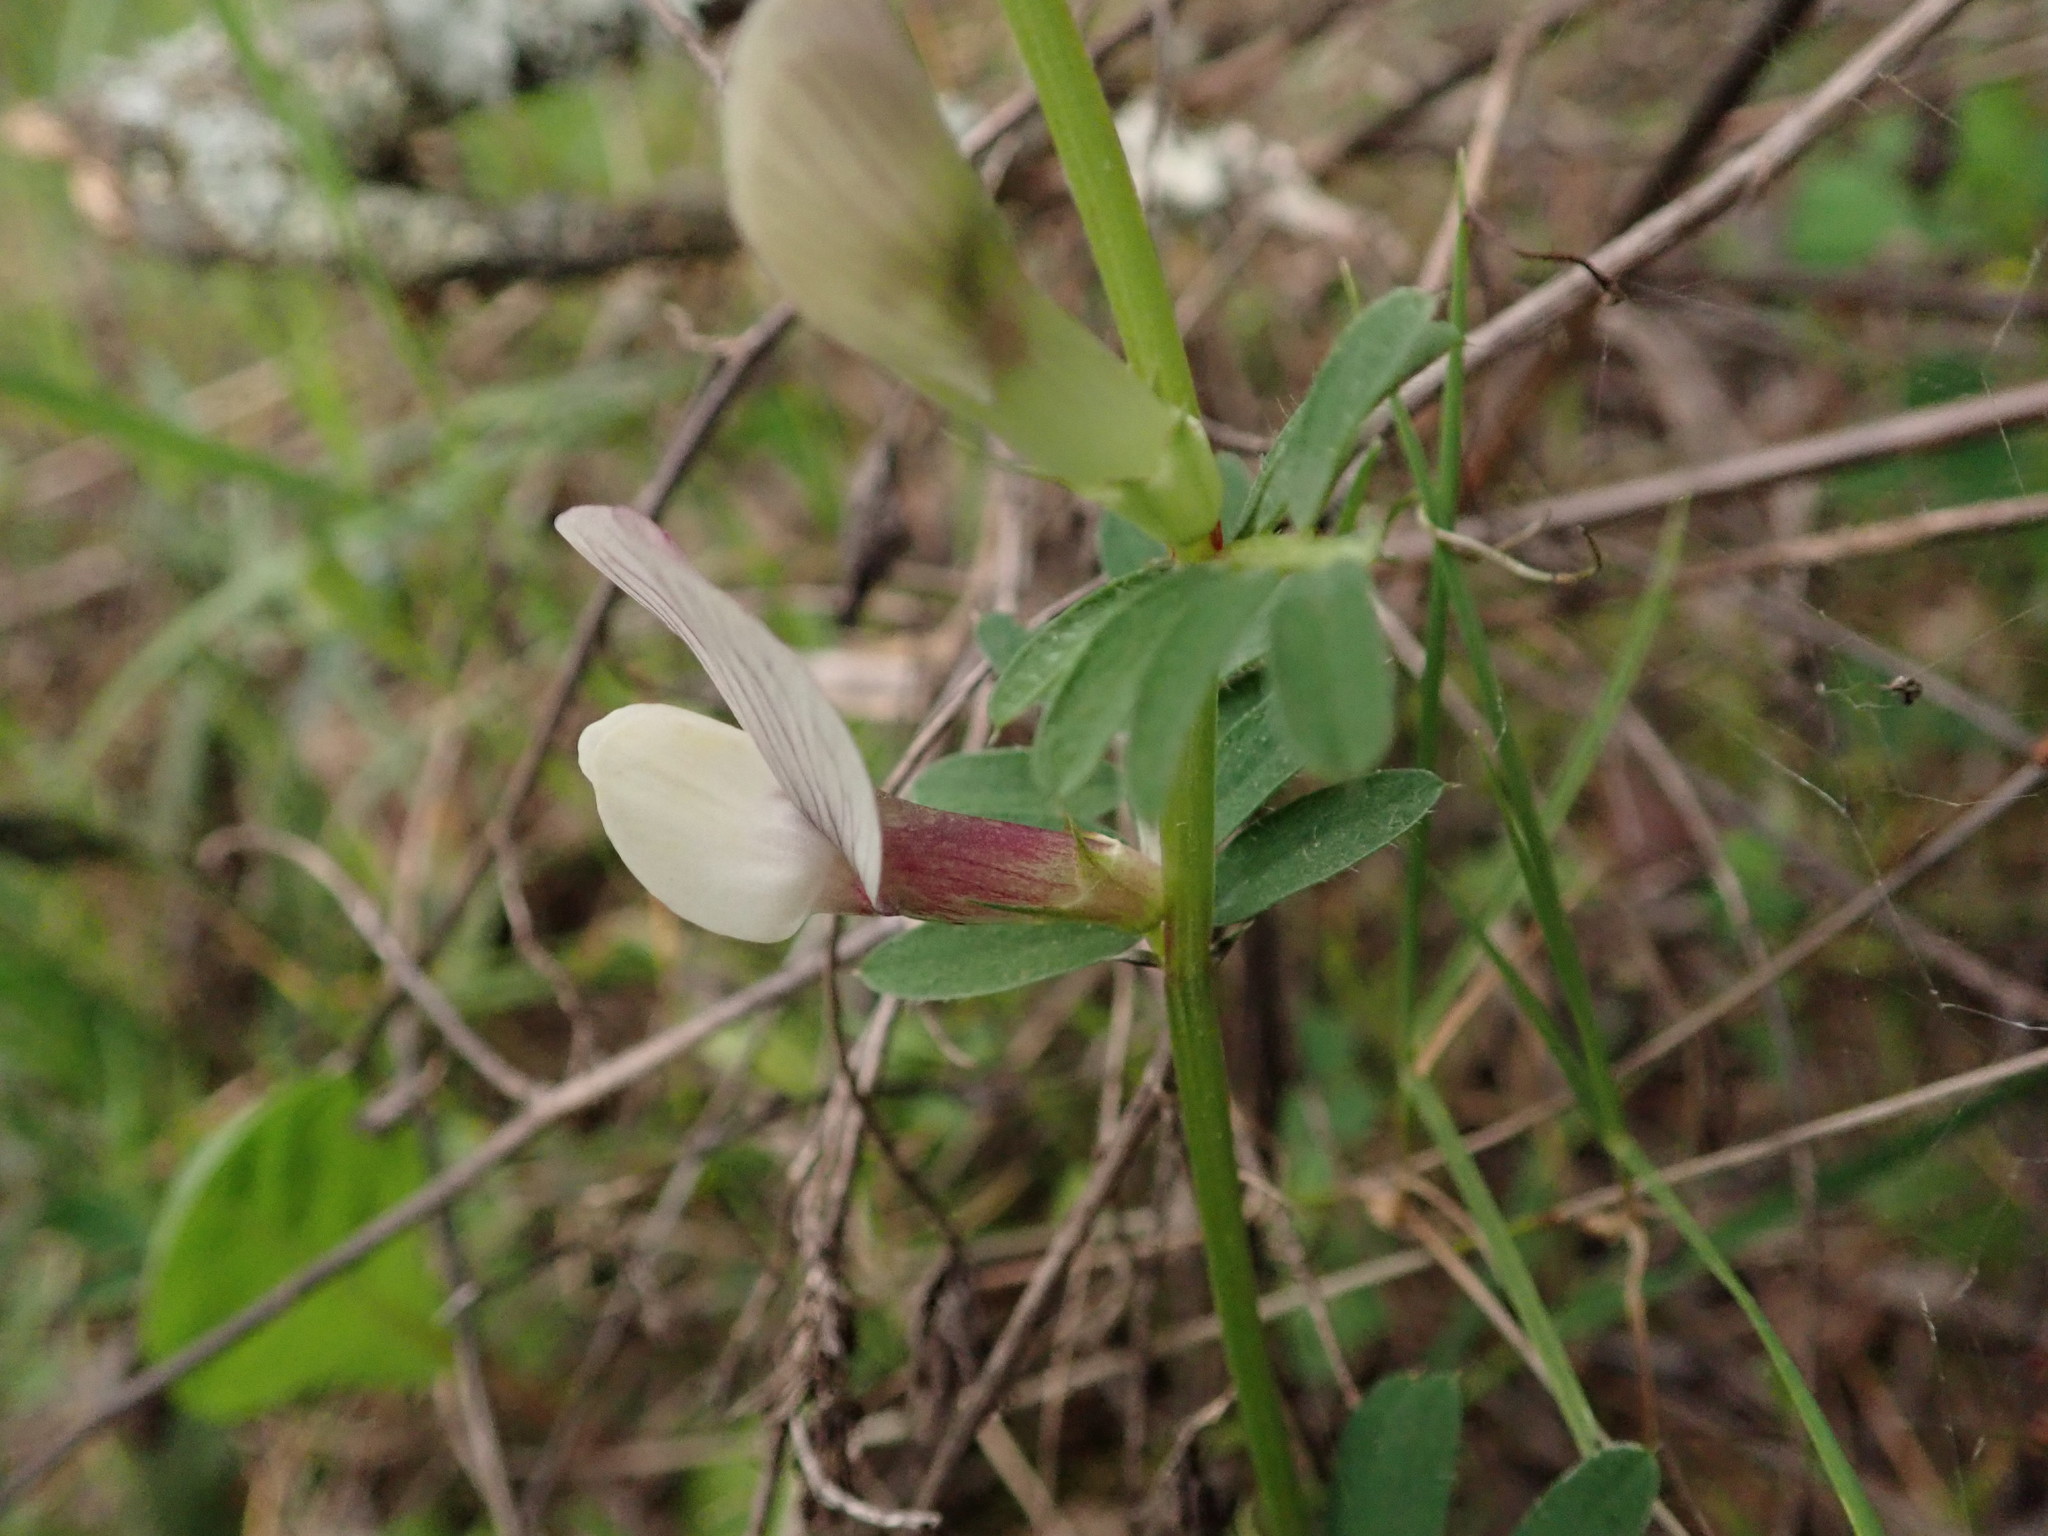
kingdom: Plantae
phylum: Tracheophyta
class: Magnoliopsida
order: Fabales
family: Fabaceae
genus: Vicia
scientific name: Vicia lutea
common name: Smooth yellow vetch
